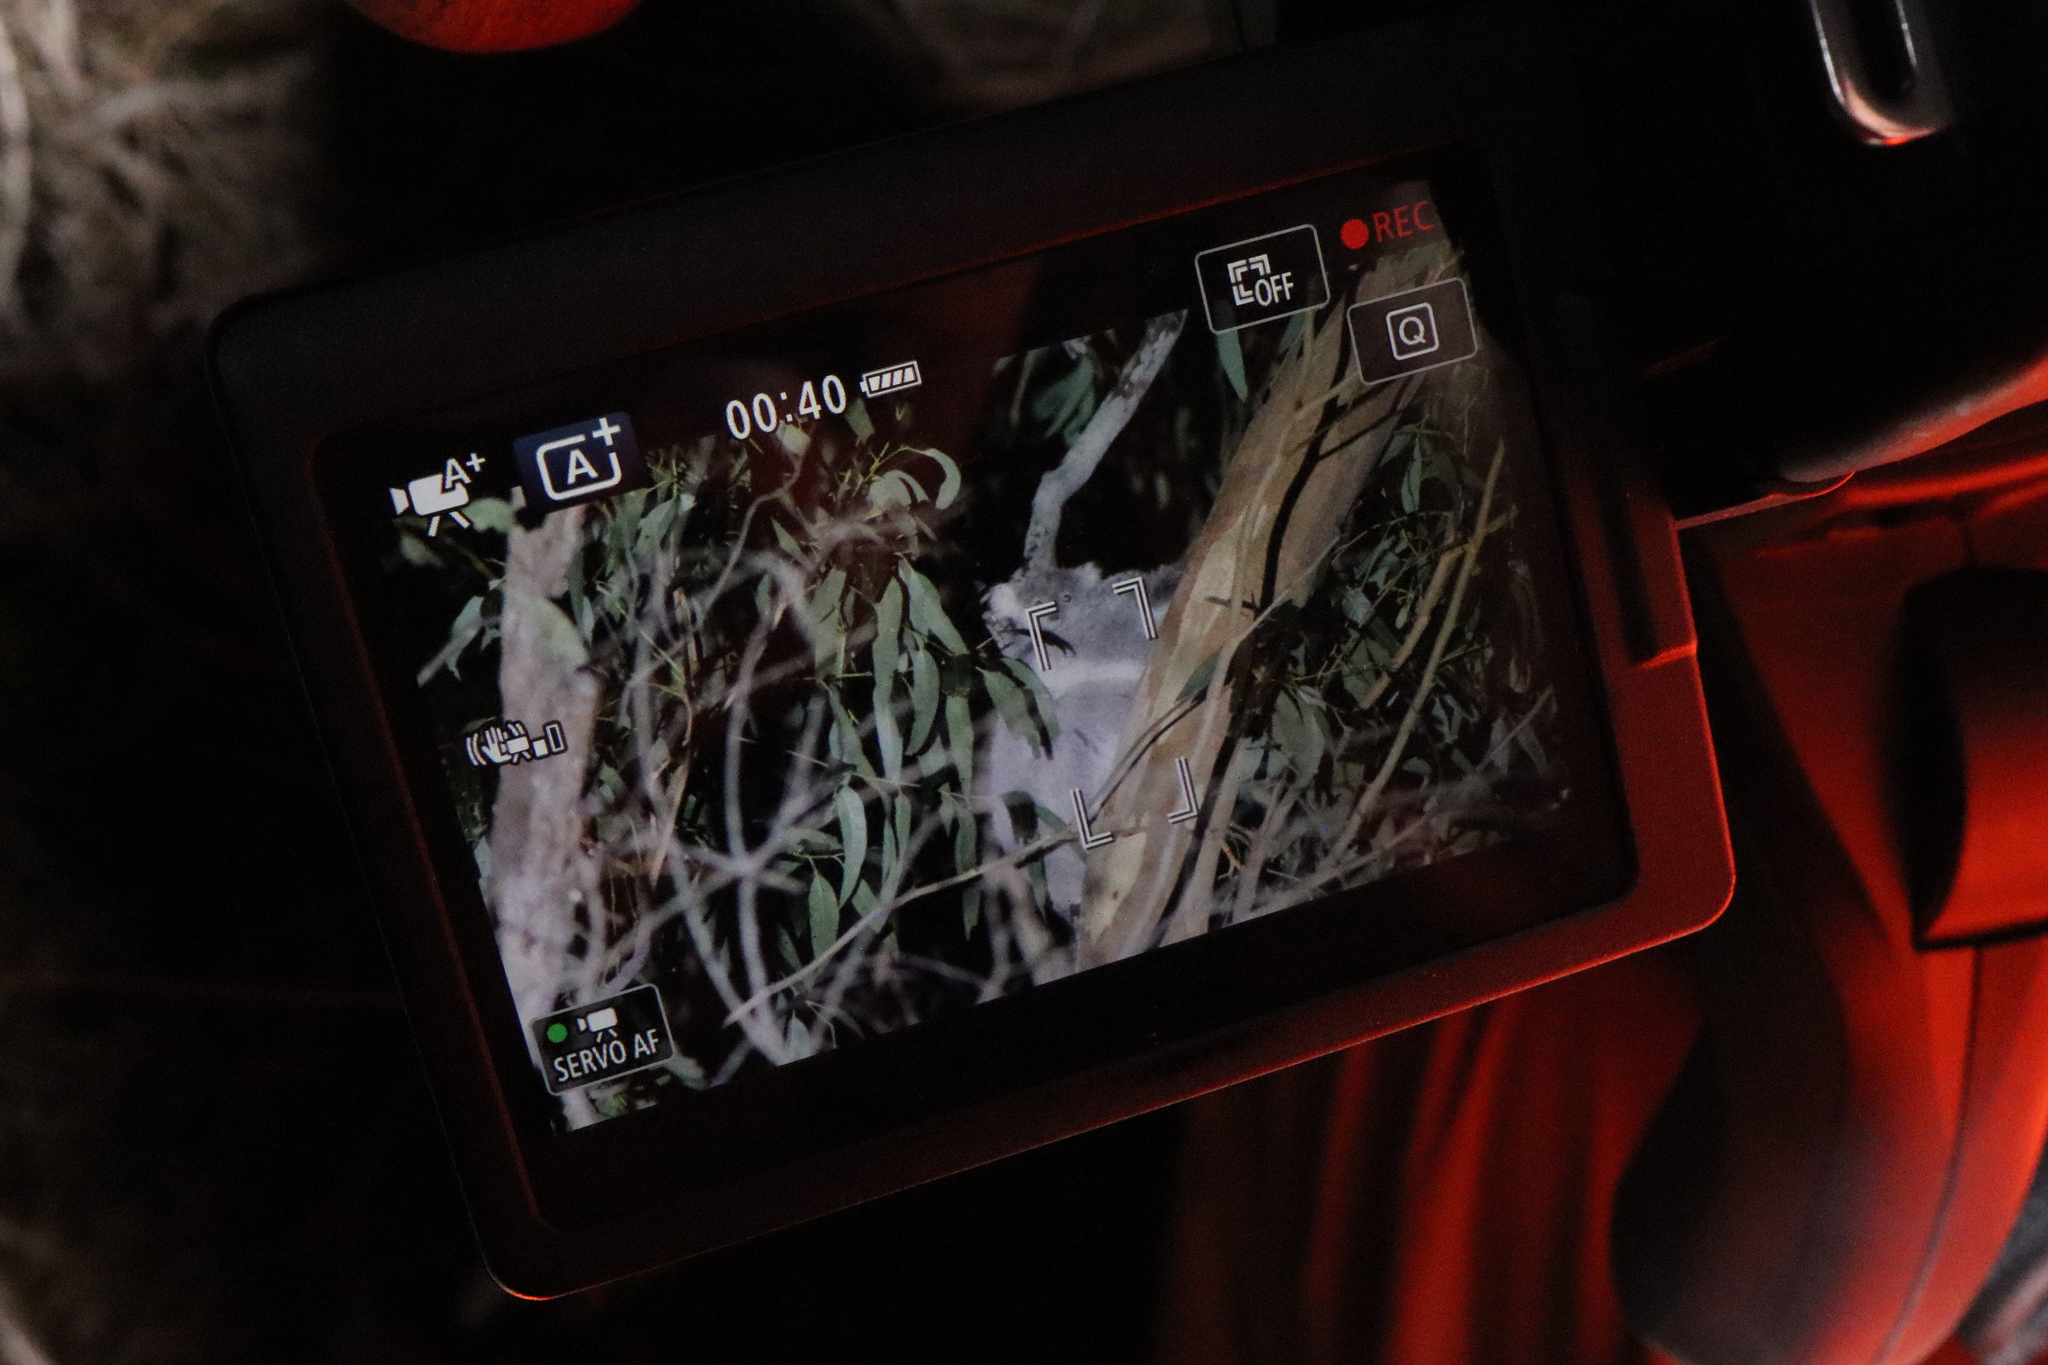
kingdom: Animalia
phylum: Chordata
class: Mammalia
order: Diprotodontia
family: Phascolarctidae
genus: Phascolarctos
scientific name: Phascolarctos cinereus
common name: Koala
